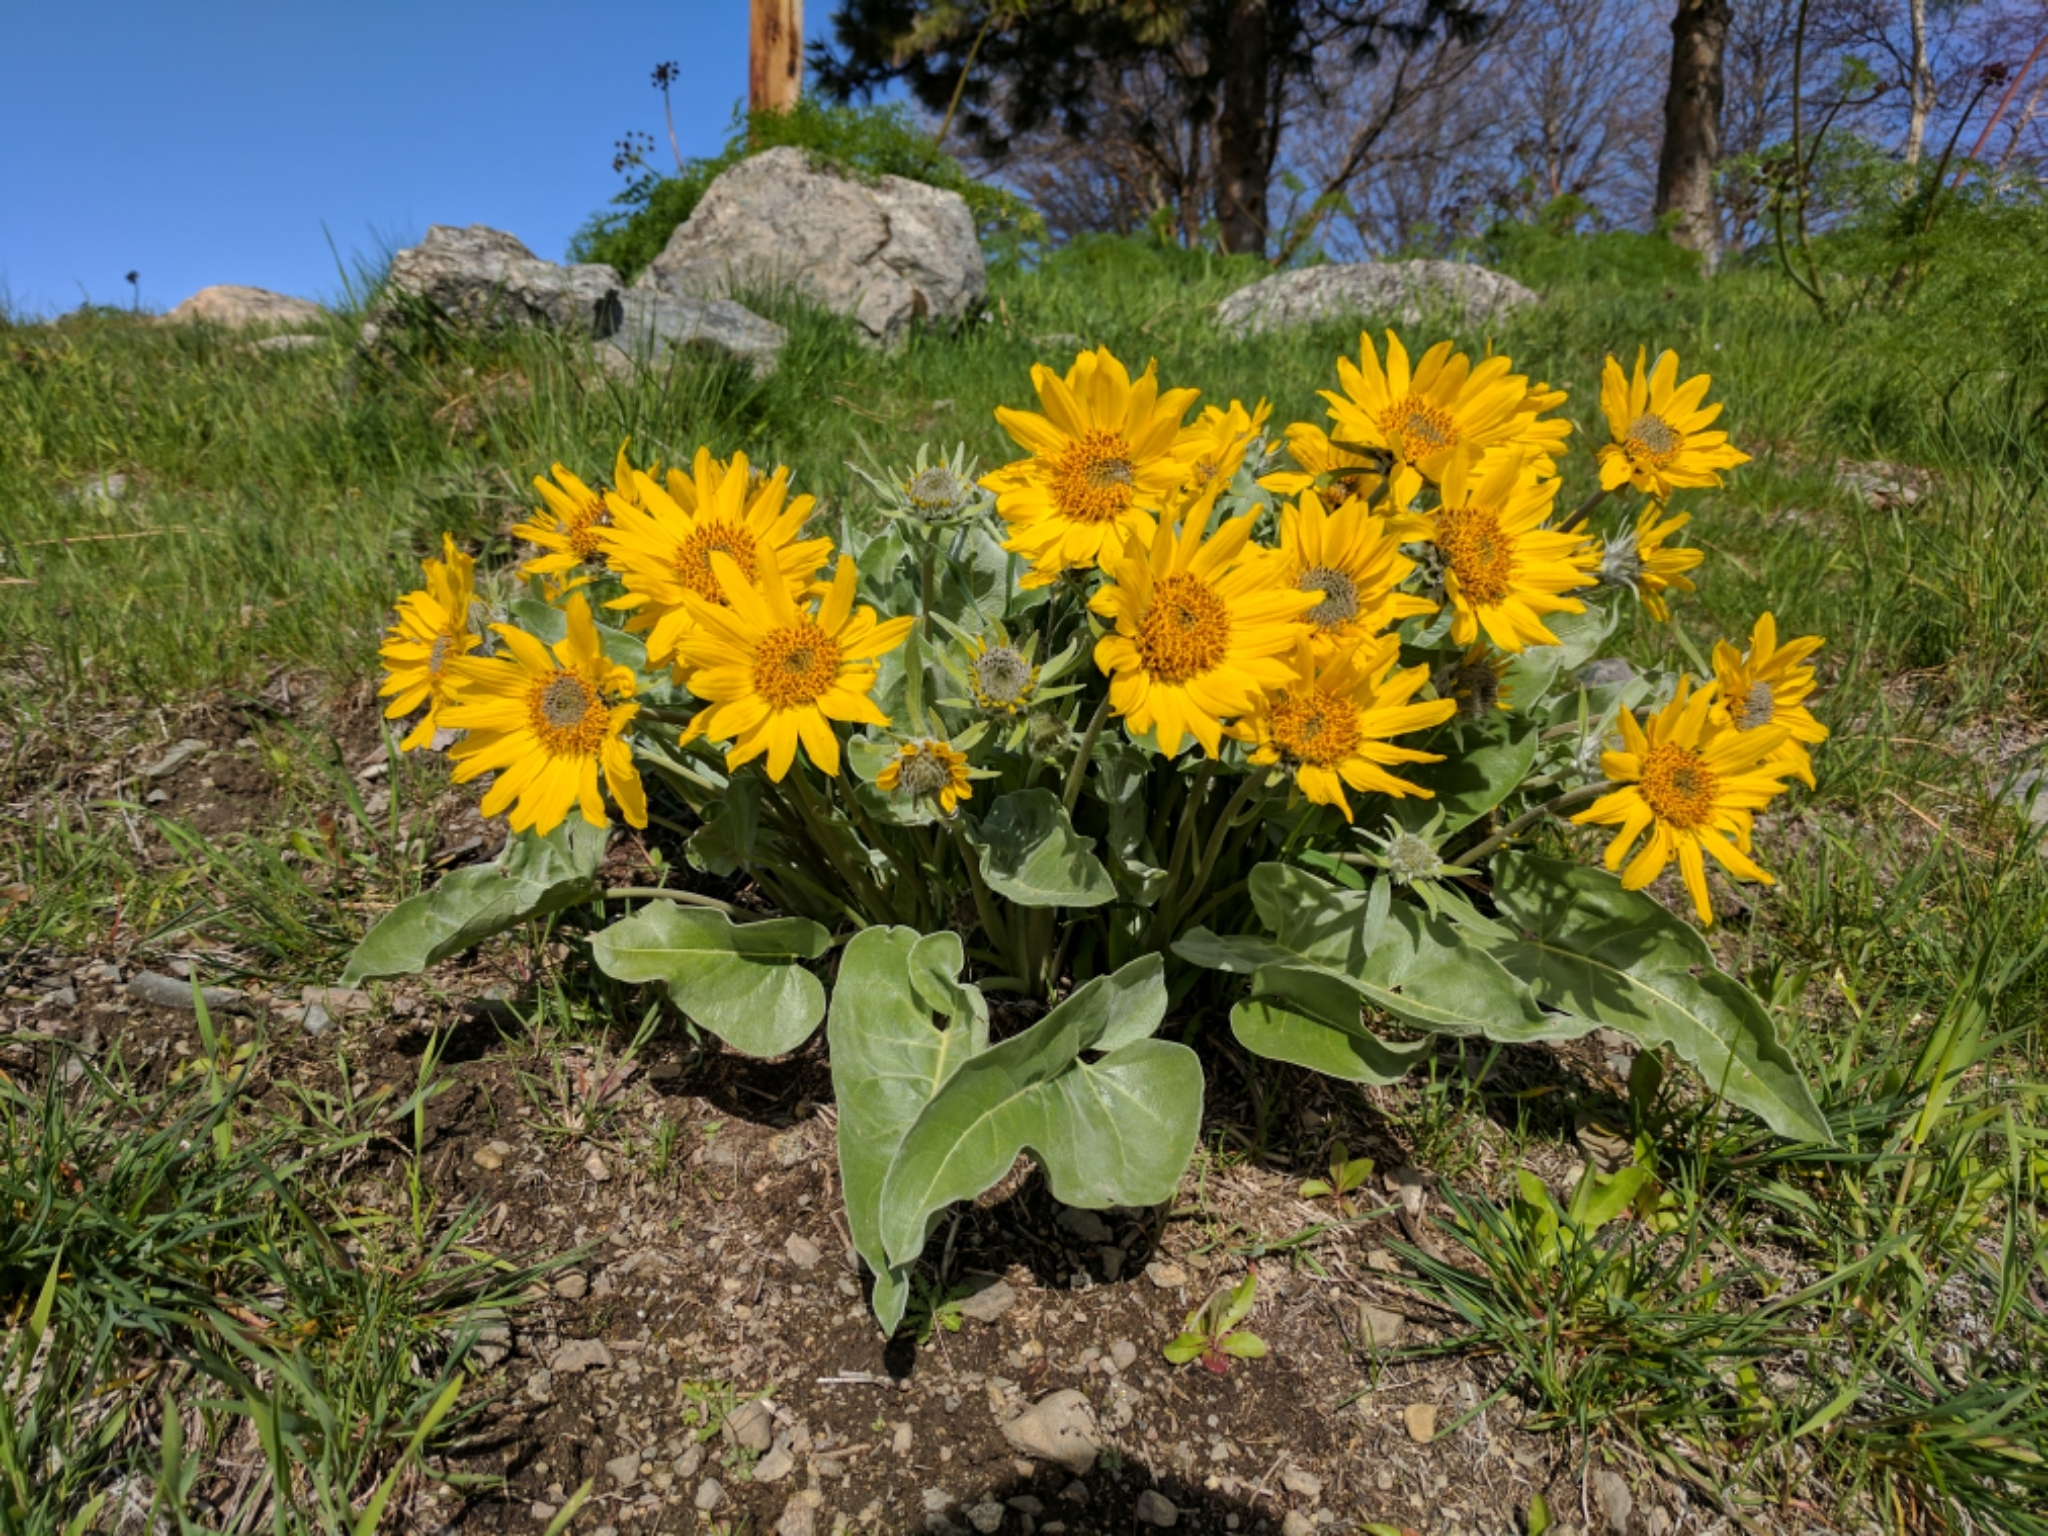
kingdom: Plantae
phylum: Tracheophyta
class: Magnoliopsida
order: Asterales
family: Asteraceae
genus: Wyethia
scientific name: Wyethia sagittata
